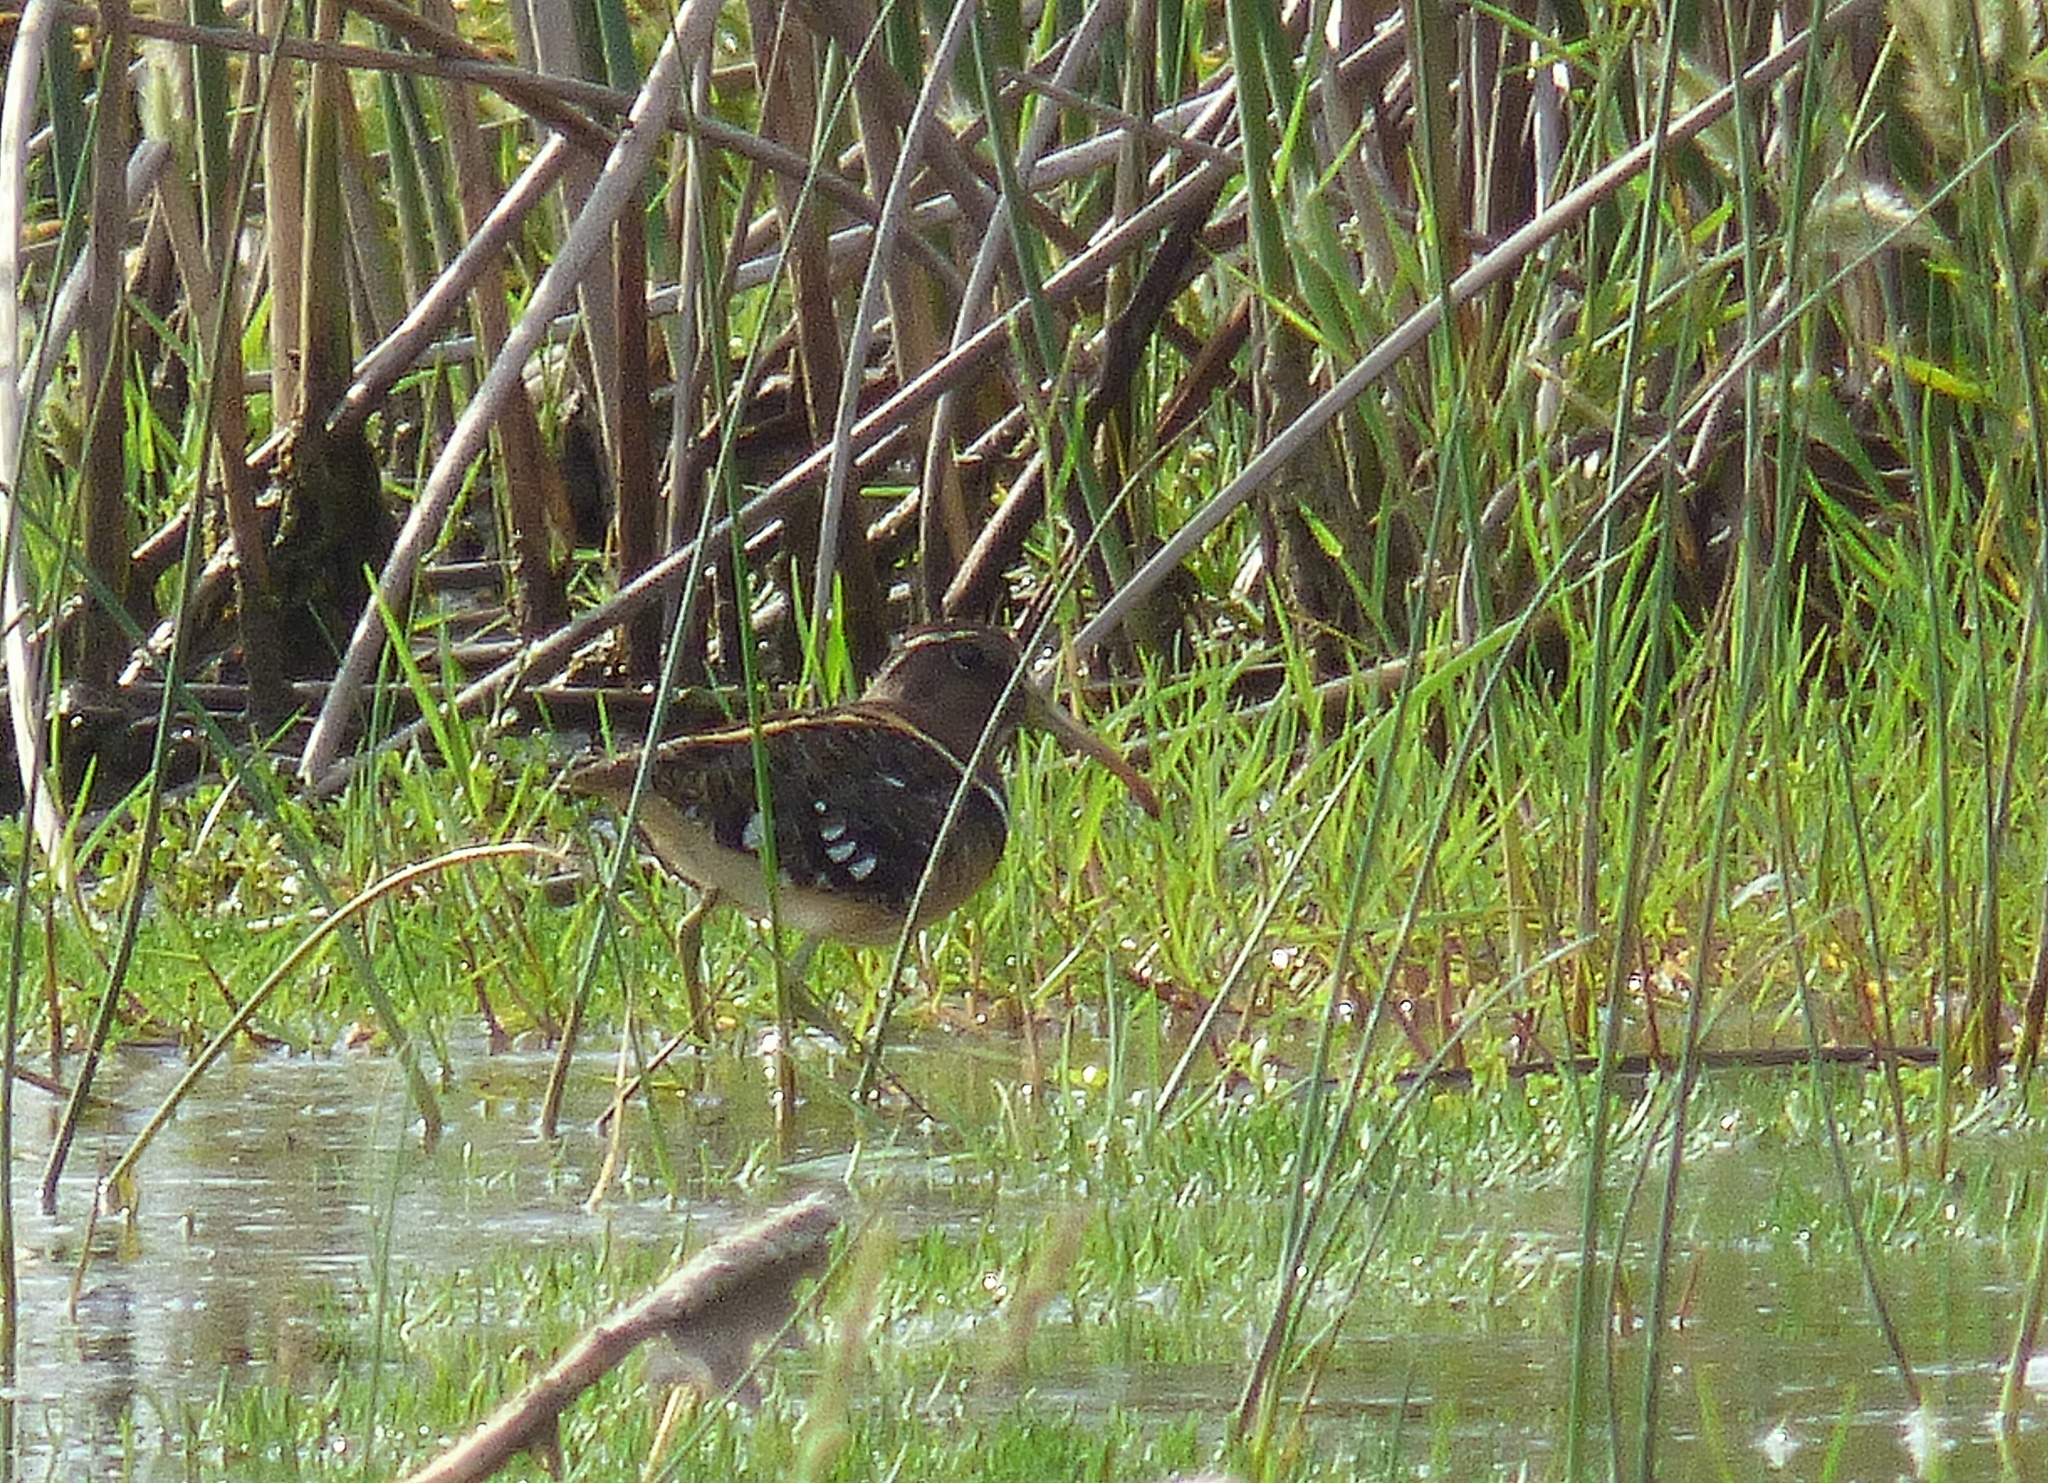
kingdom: Animalia
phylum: Chordata
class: Aves
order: Charadriiformes
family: Rostratulidae
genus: Nycticryphes
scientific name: Nycticryphes semicollaris
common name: South american painted-snipe
